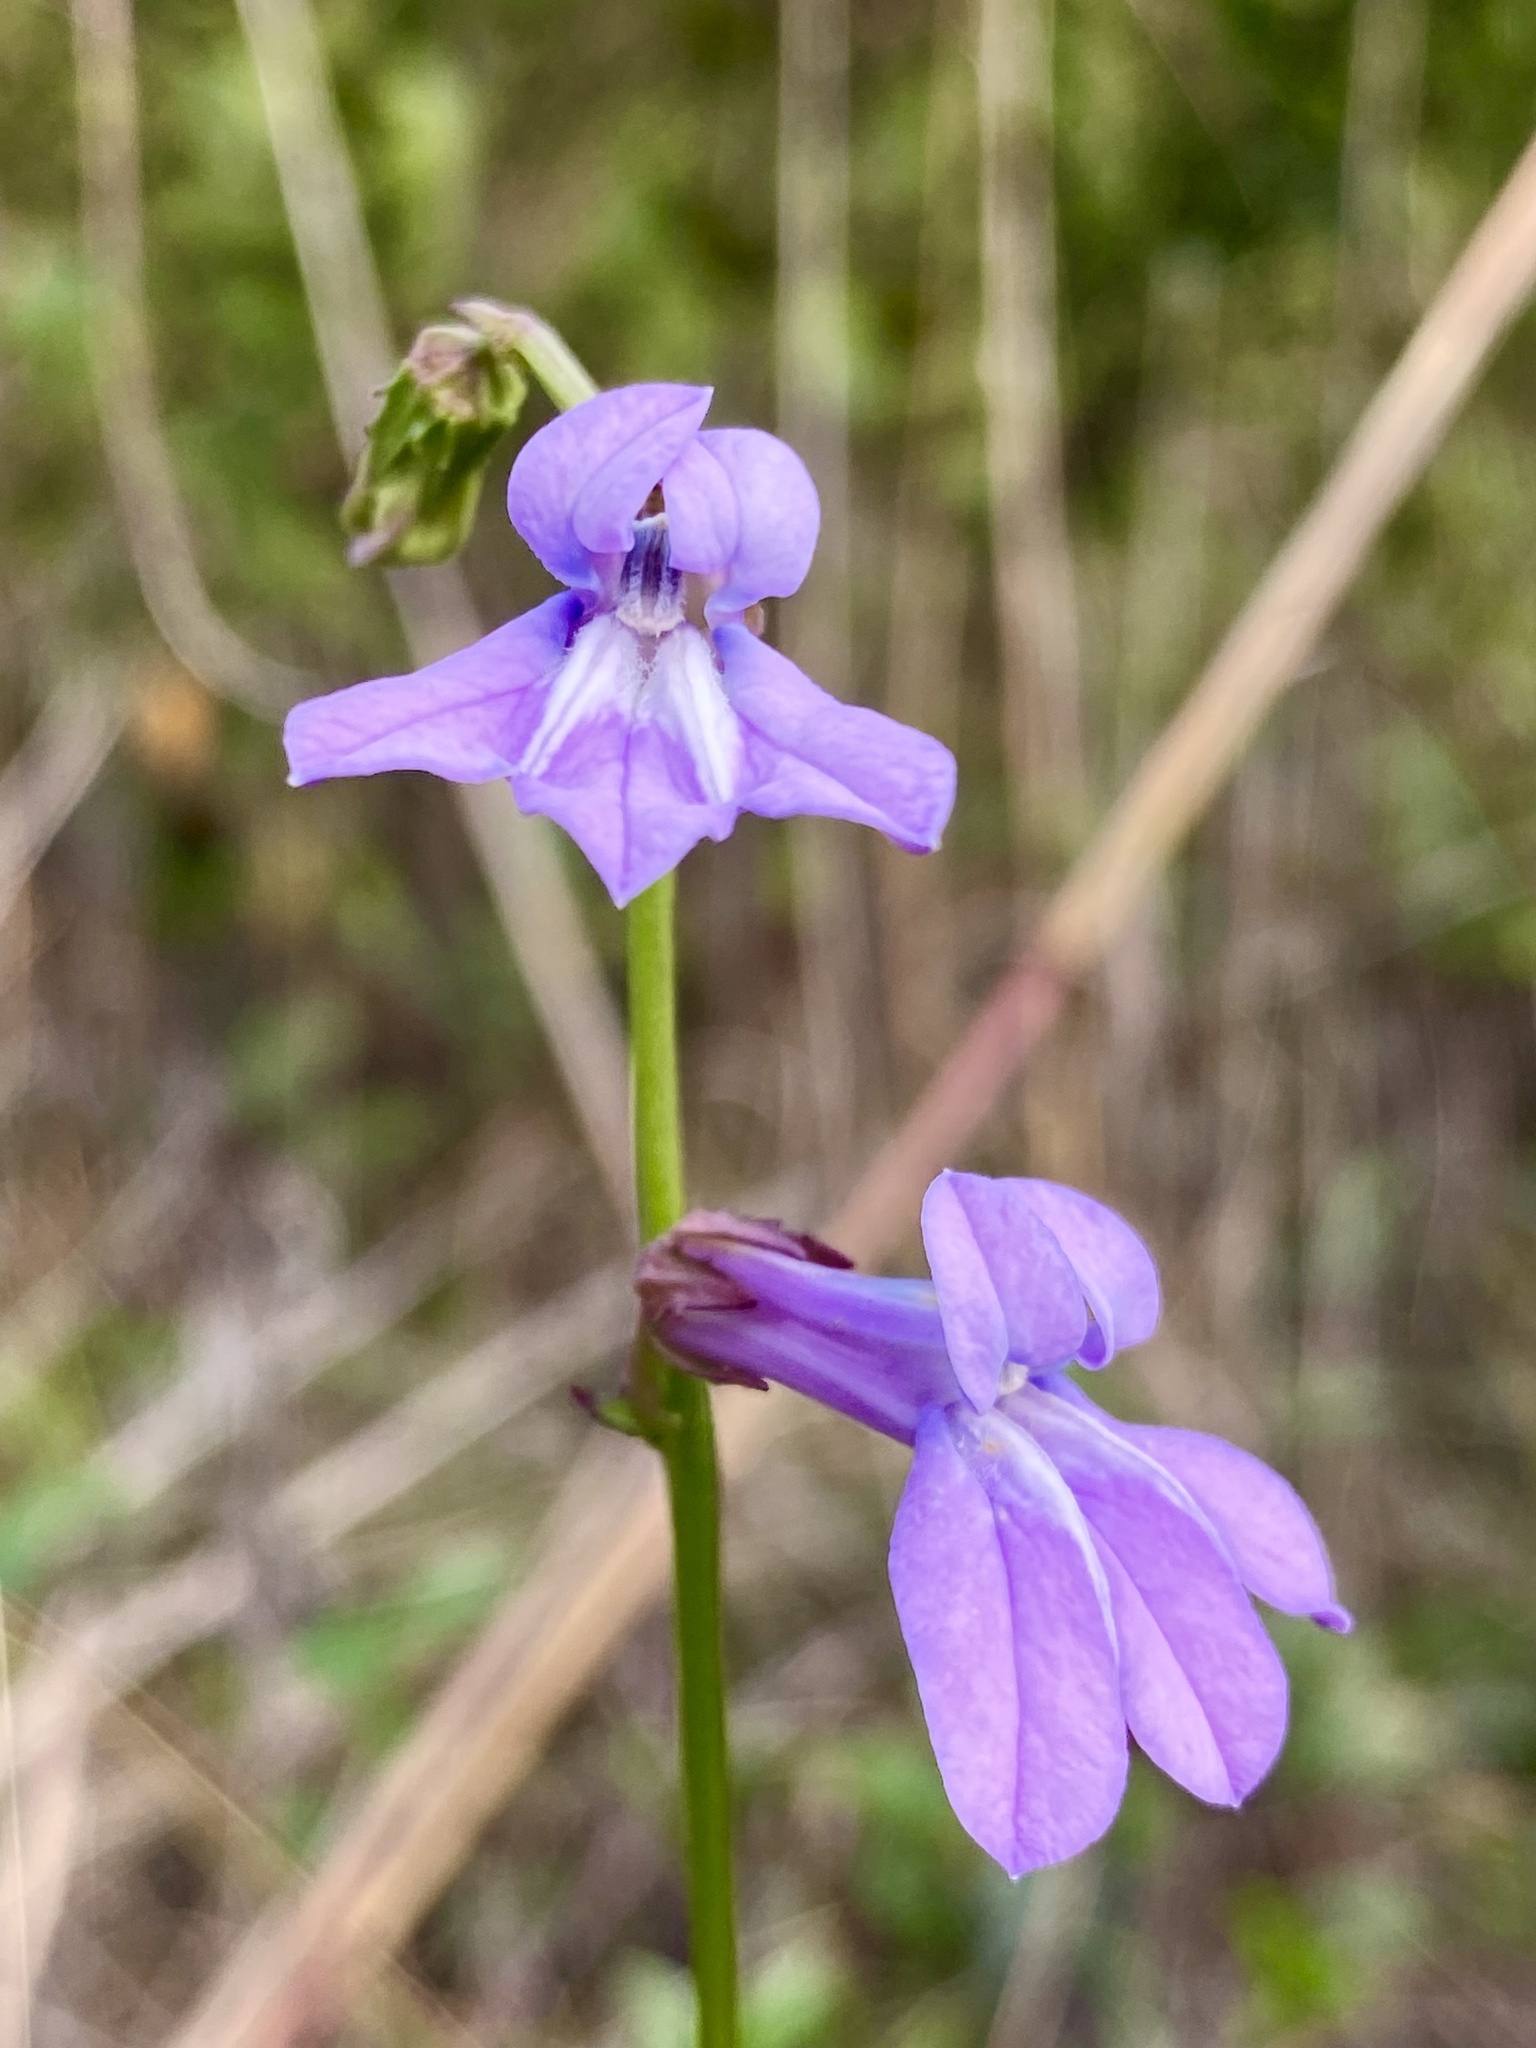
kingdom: Plantae
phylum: Tracheophyta
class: Magnoliopsida
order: Asterales
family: Campanulaceae
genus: Lobelia
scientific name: Lobelia glandulosa
